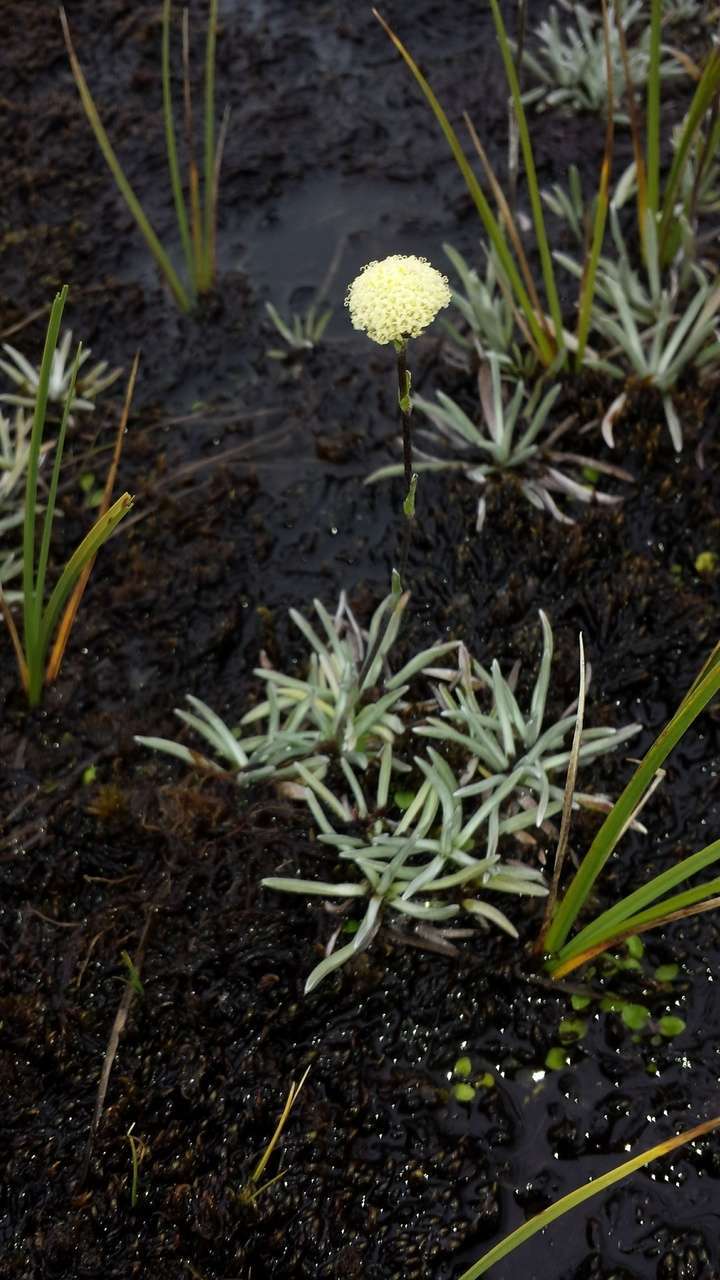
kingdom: Plantae
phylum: Tracheophyta
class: Magnoliopsida
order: Asterales
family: Asteraceae
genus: Craspedia
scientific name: Craspedia alba
